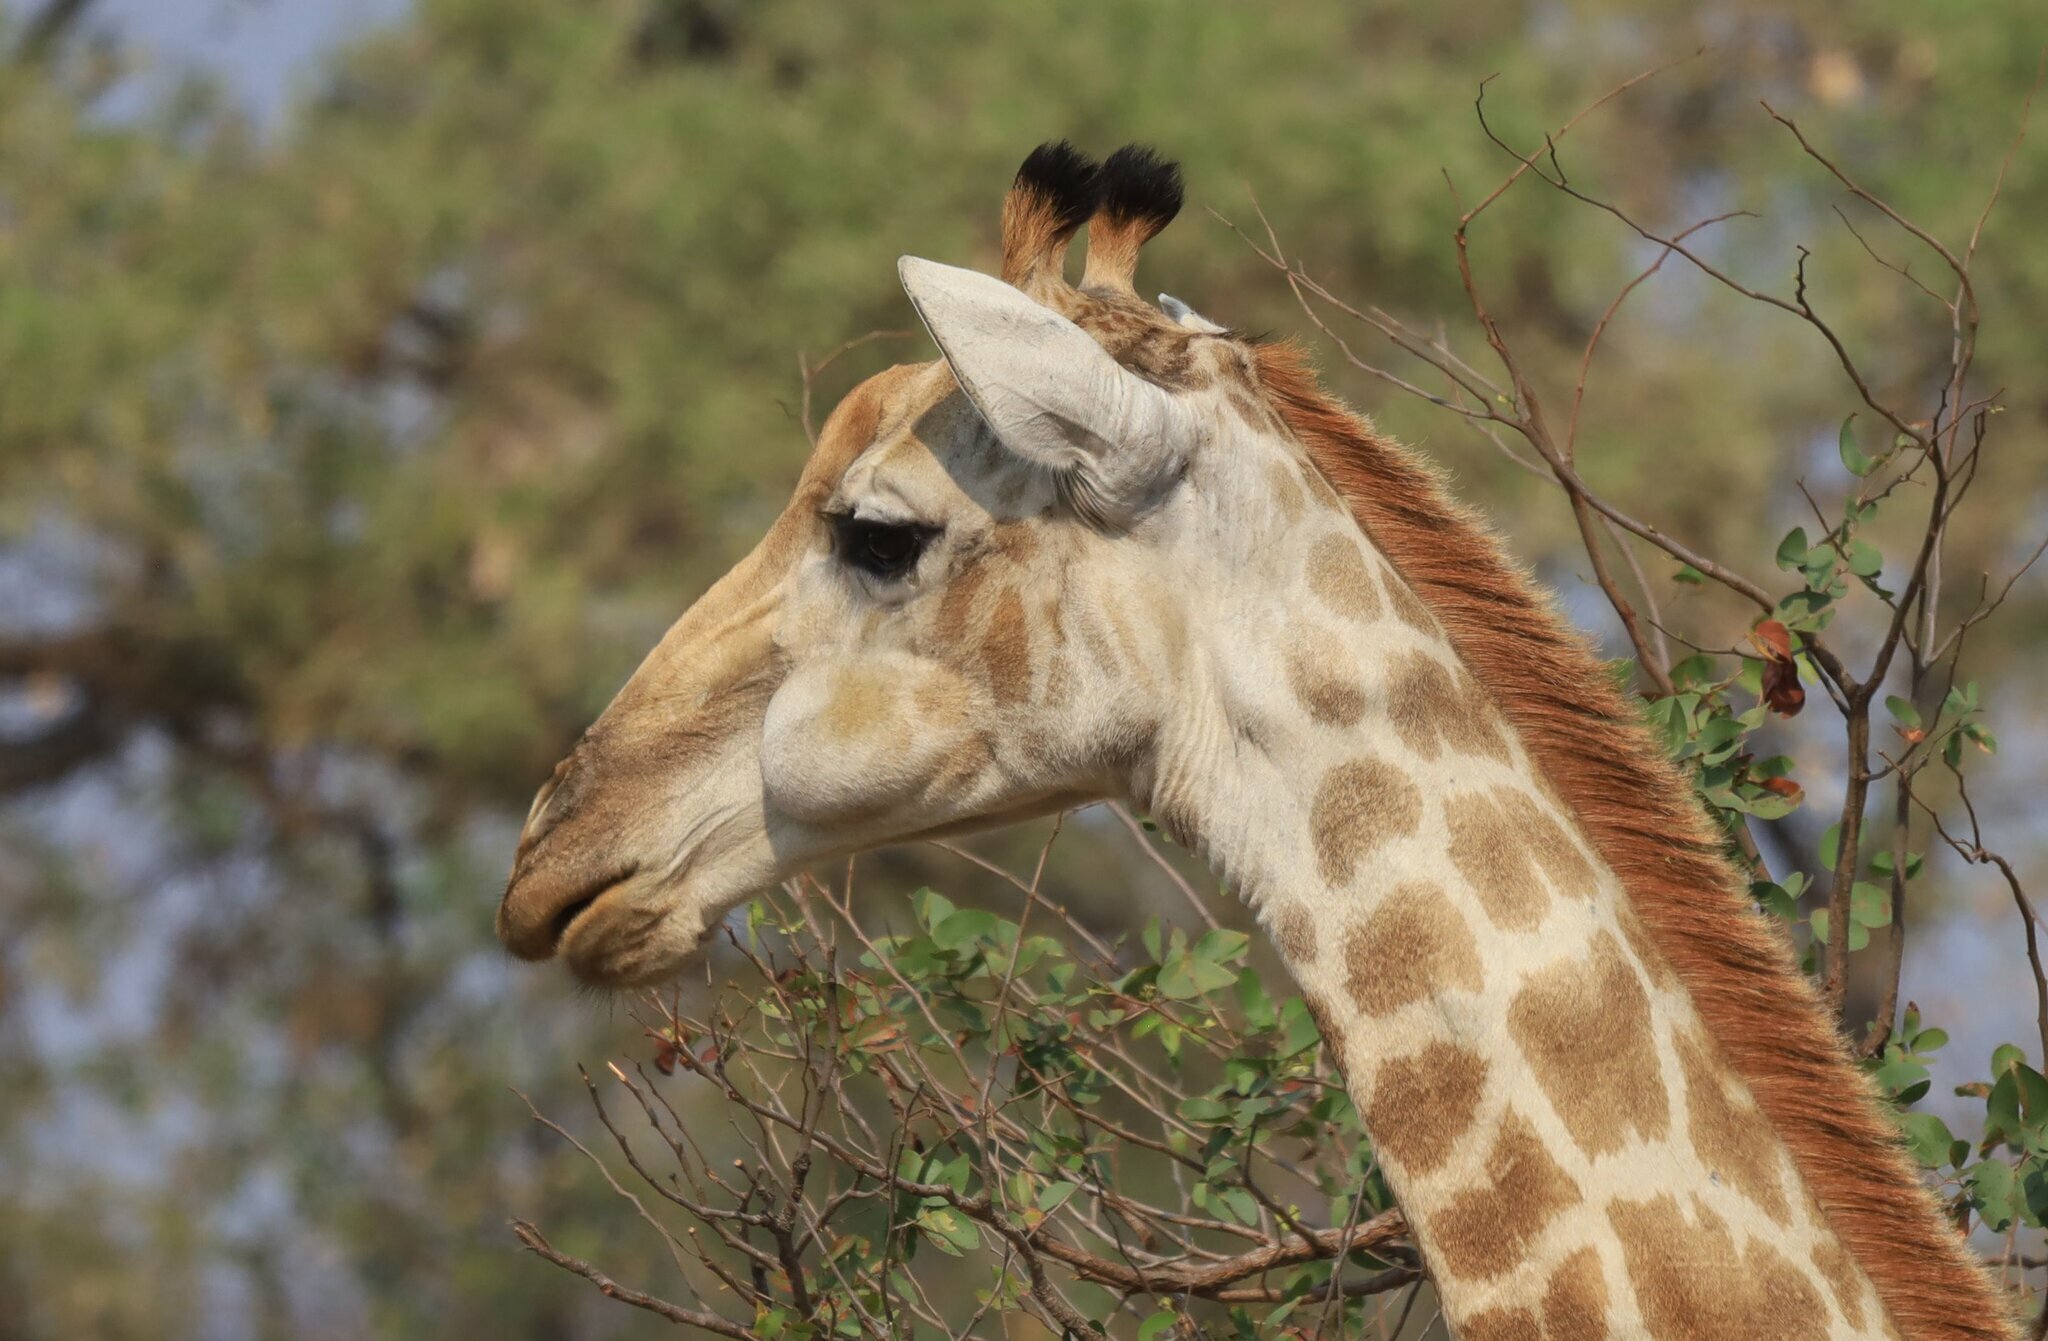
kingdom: Animalia
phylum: Chordata
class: Mammalia
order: Artiodactyla
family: Giraffidae
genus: Giraffa
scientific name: Giraffa giraffa
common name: Southern giraffe
